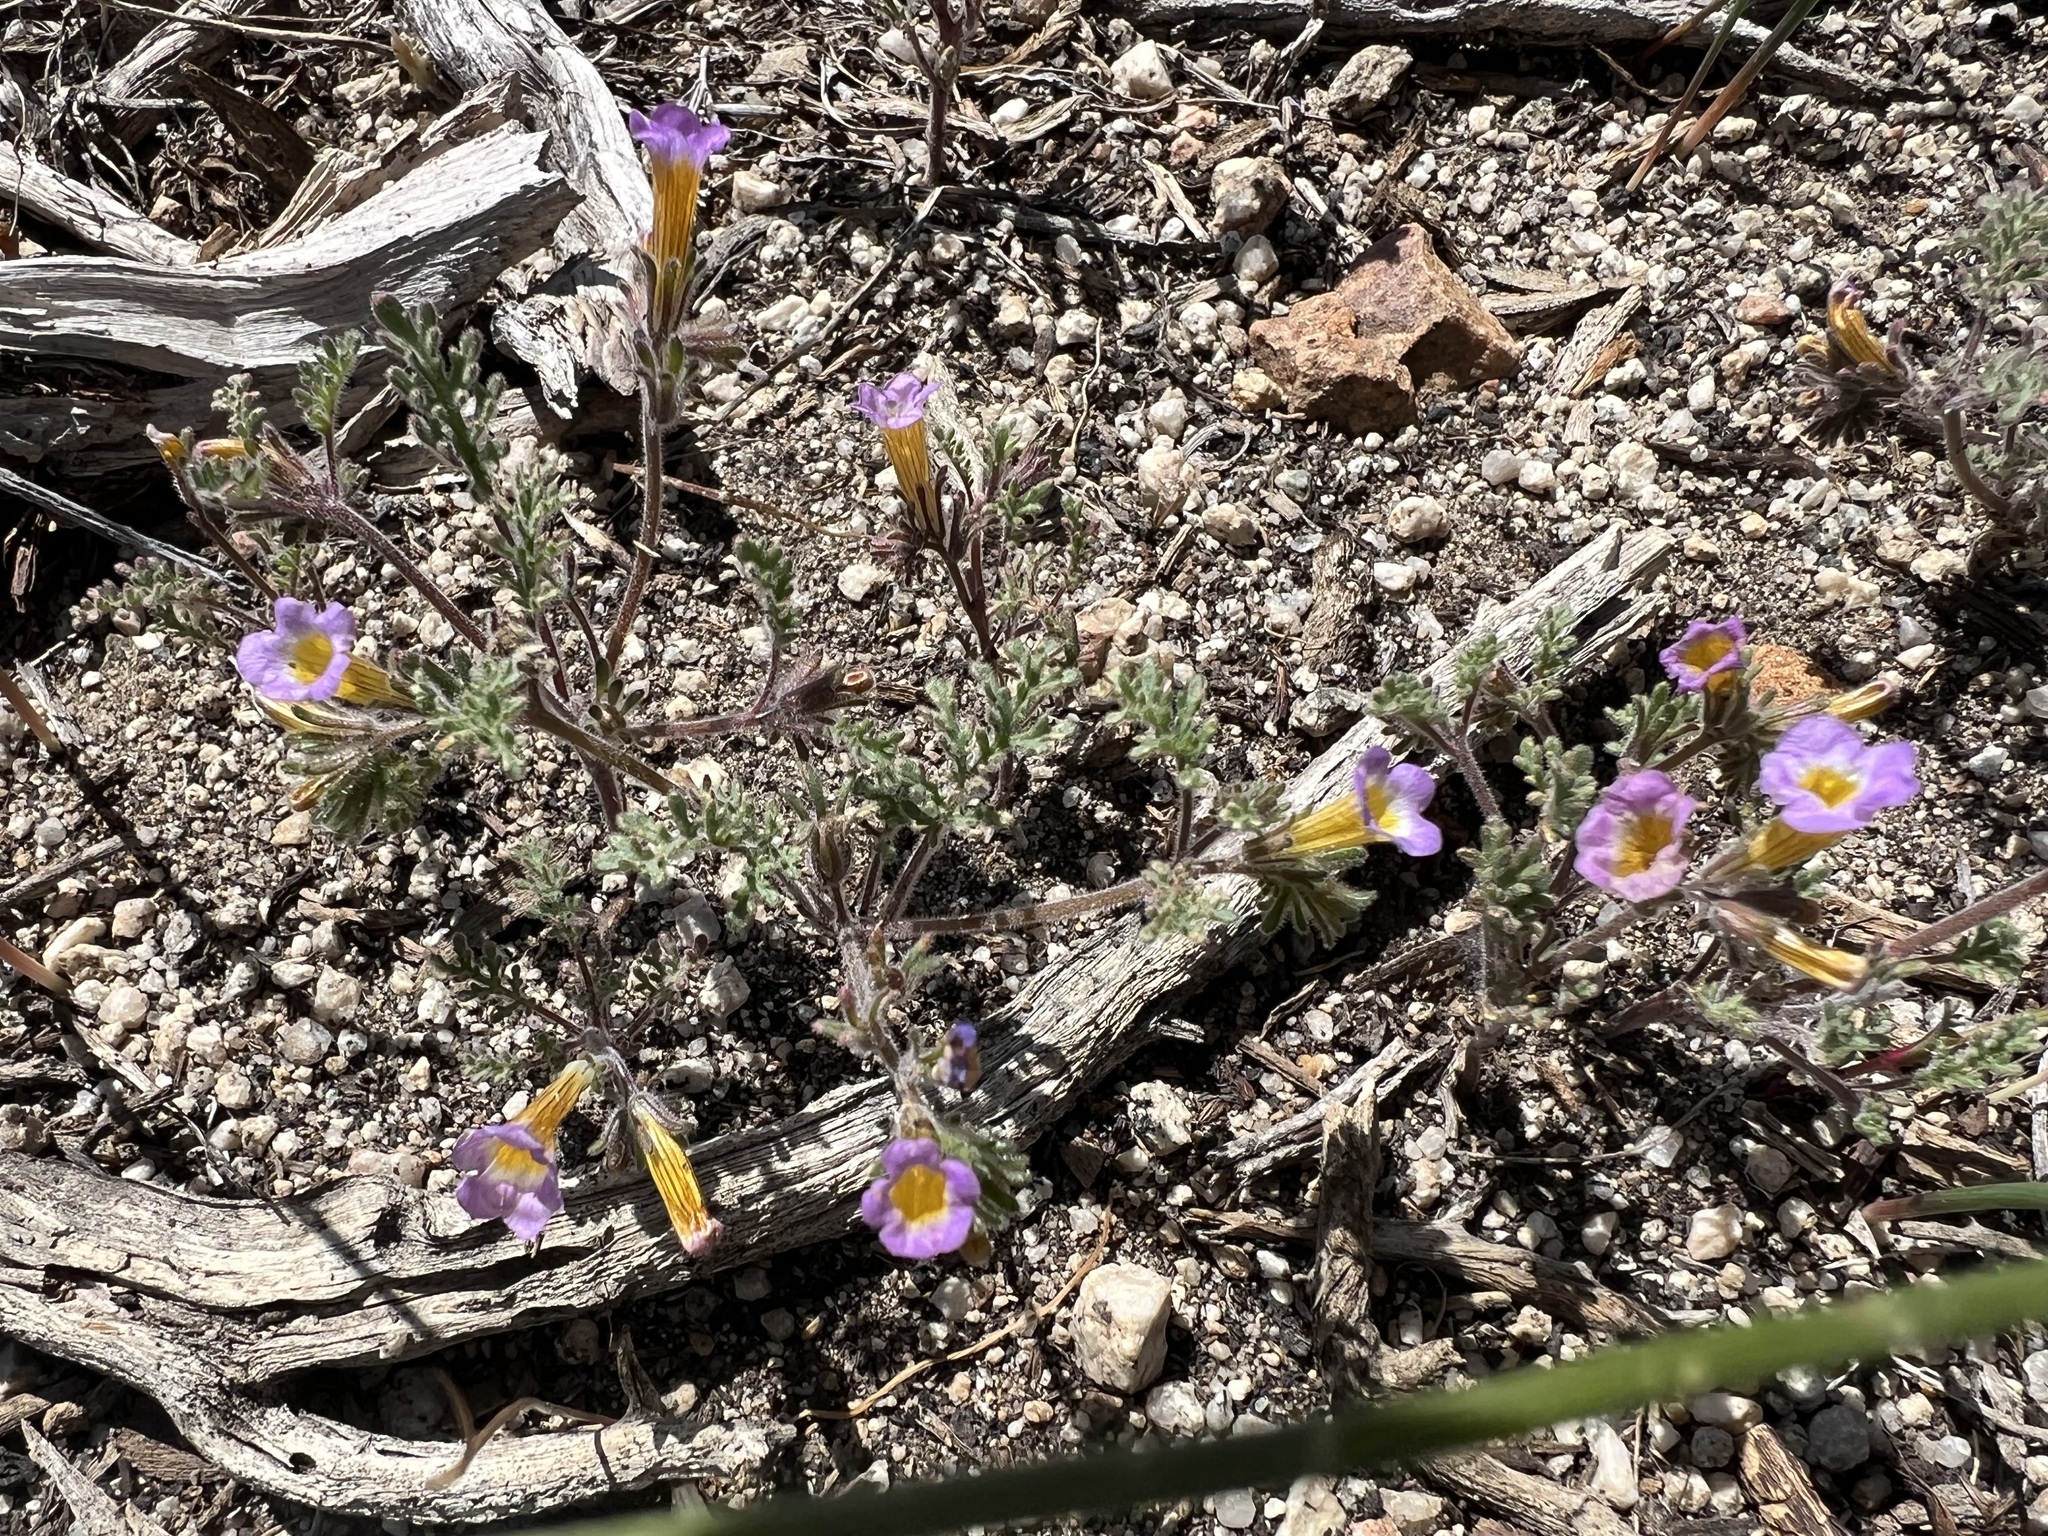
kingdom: Plantae
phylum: Tracheophyta
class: Magnoliopsida
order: Boraginales
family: Hydrophyllaceae
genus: Phacelia
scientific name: Phacelia bicolor
